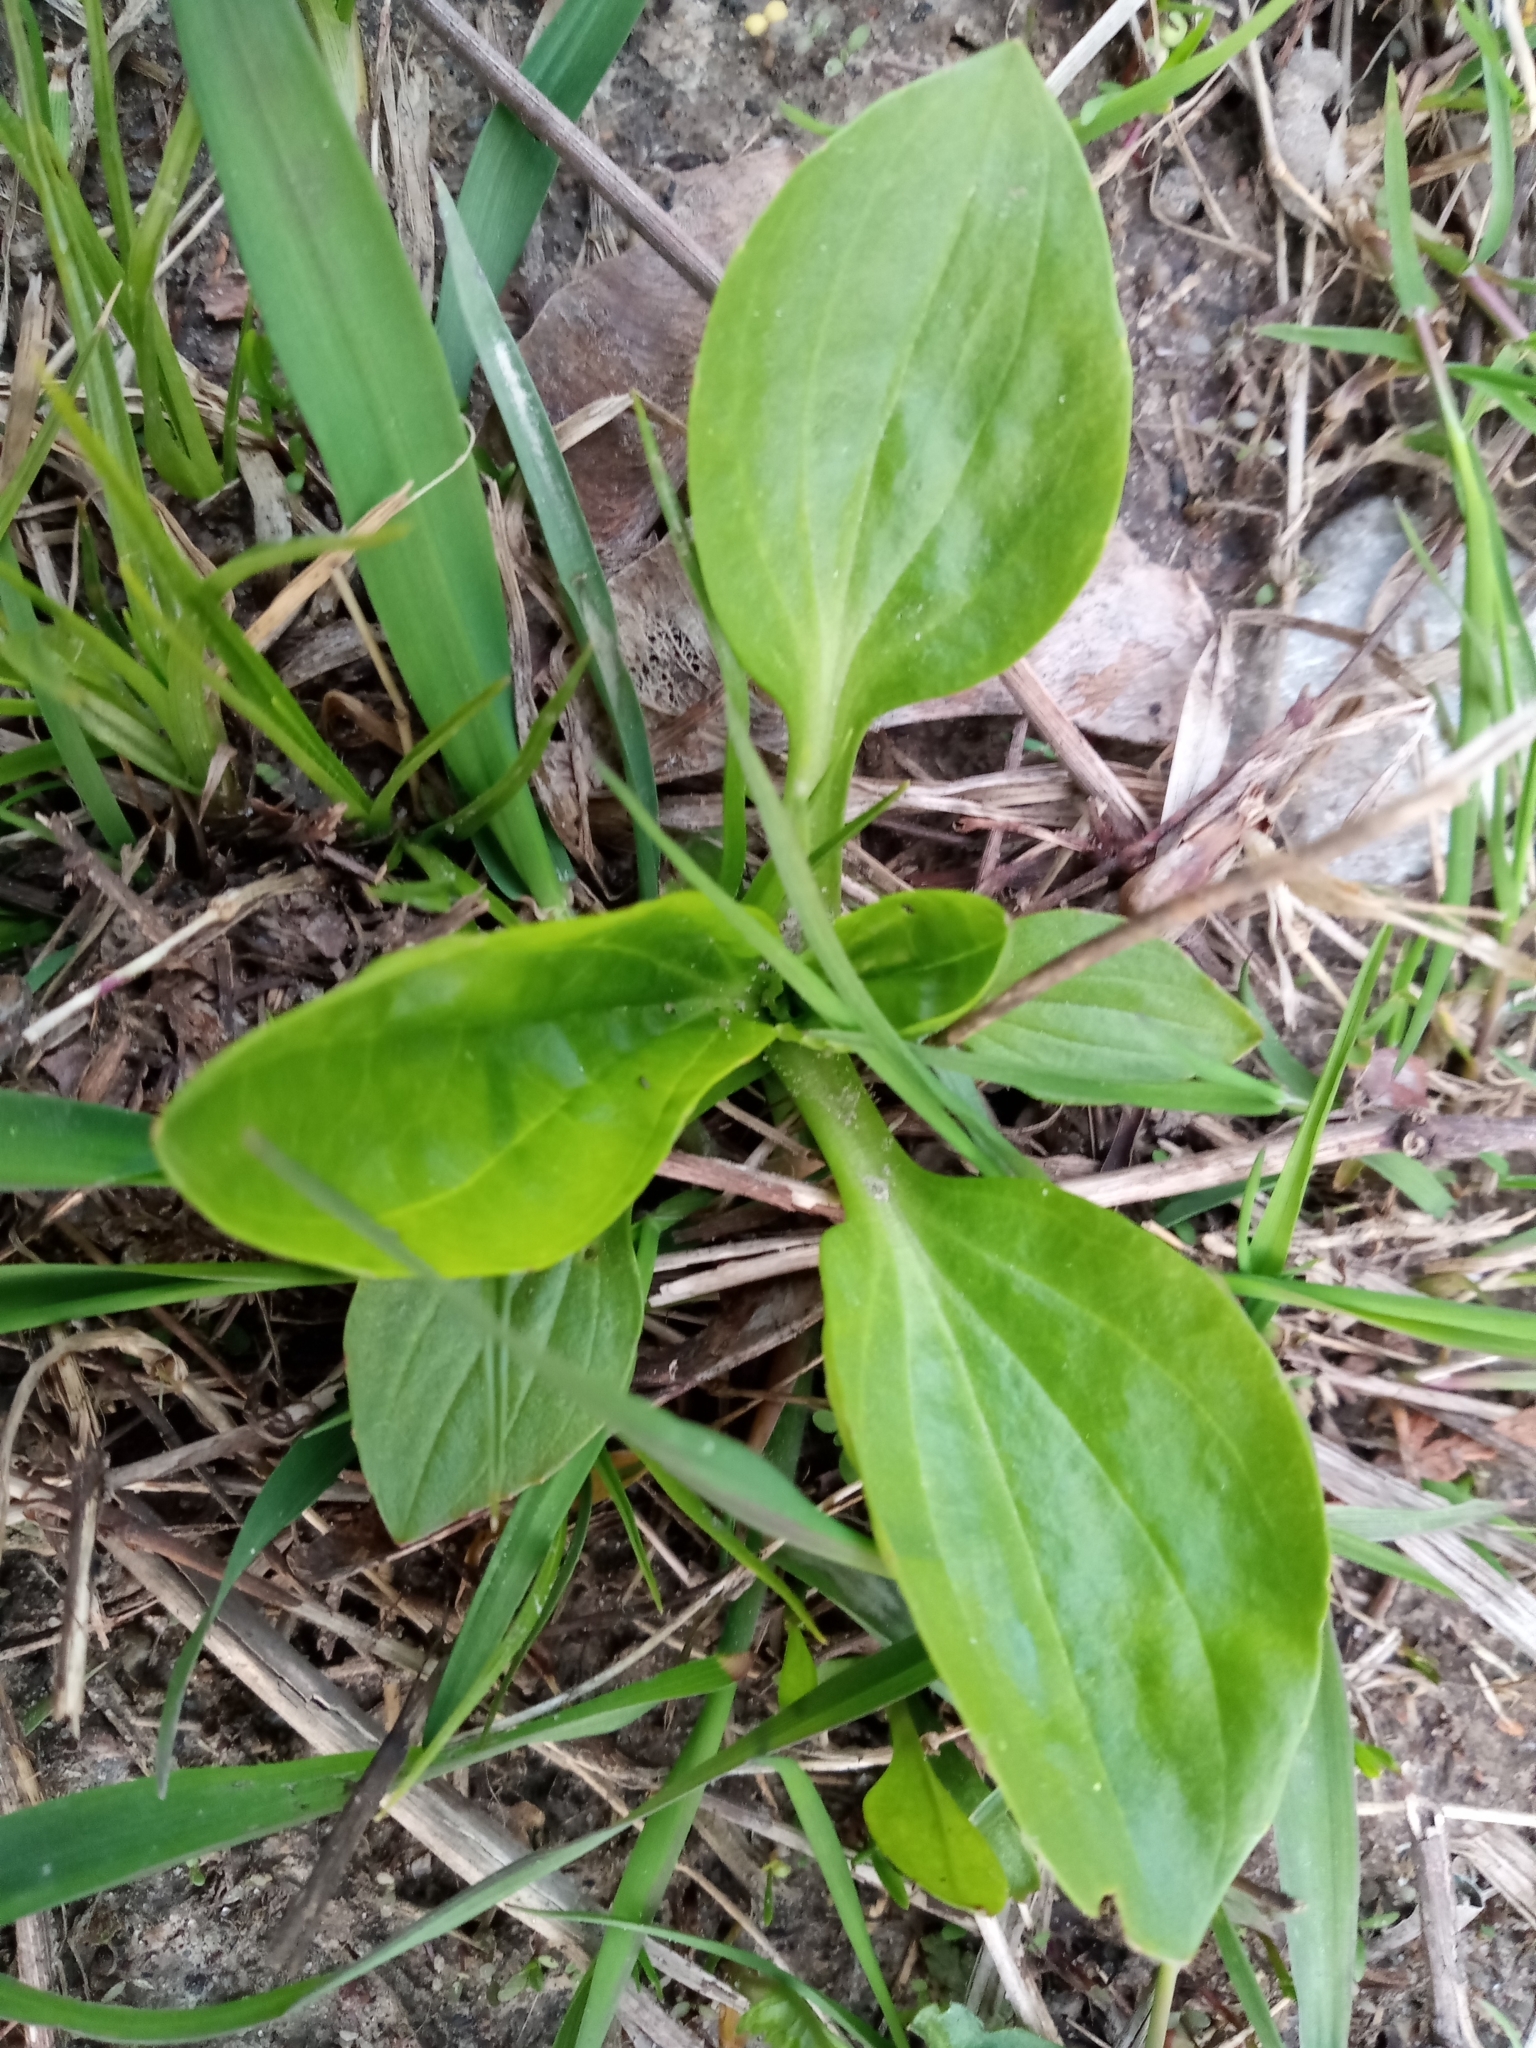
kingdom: Plantae
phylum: Tracheophyta
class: Magnoliopsida
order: Lamiales
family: Plantaginaceae
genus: Plantago
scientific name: Plantago major
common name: Common plantain
